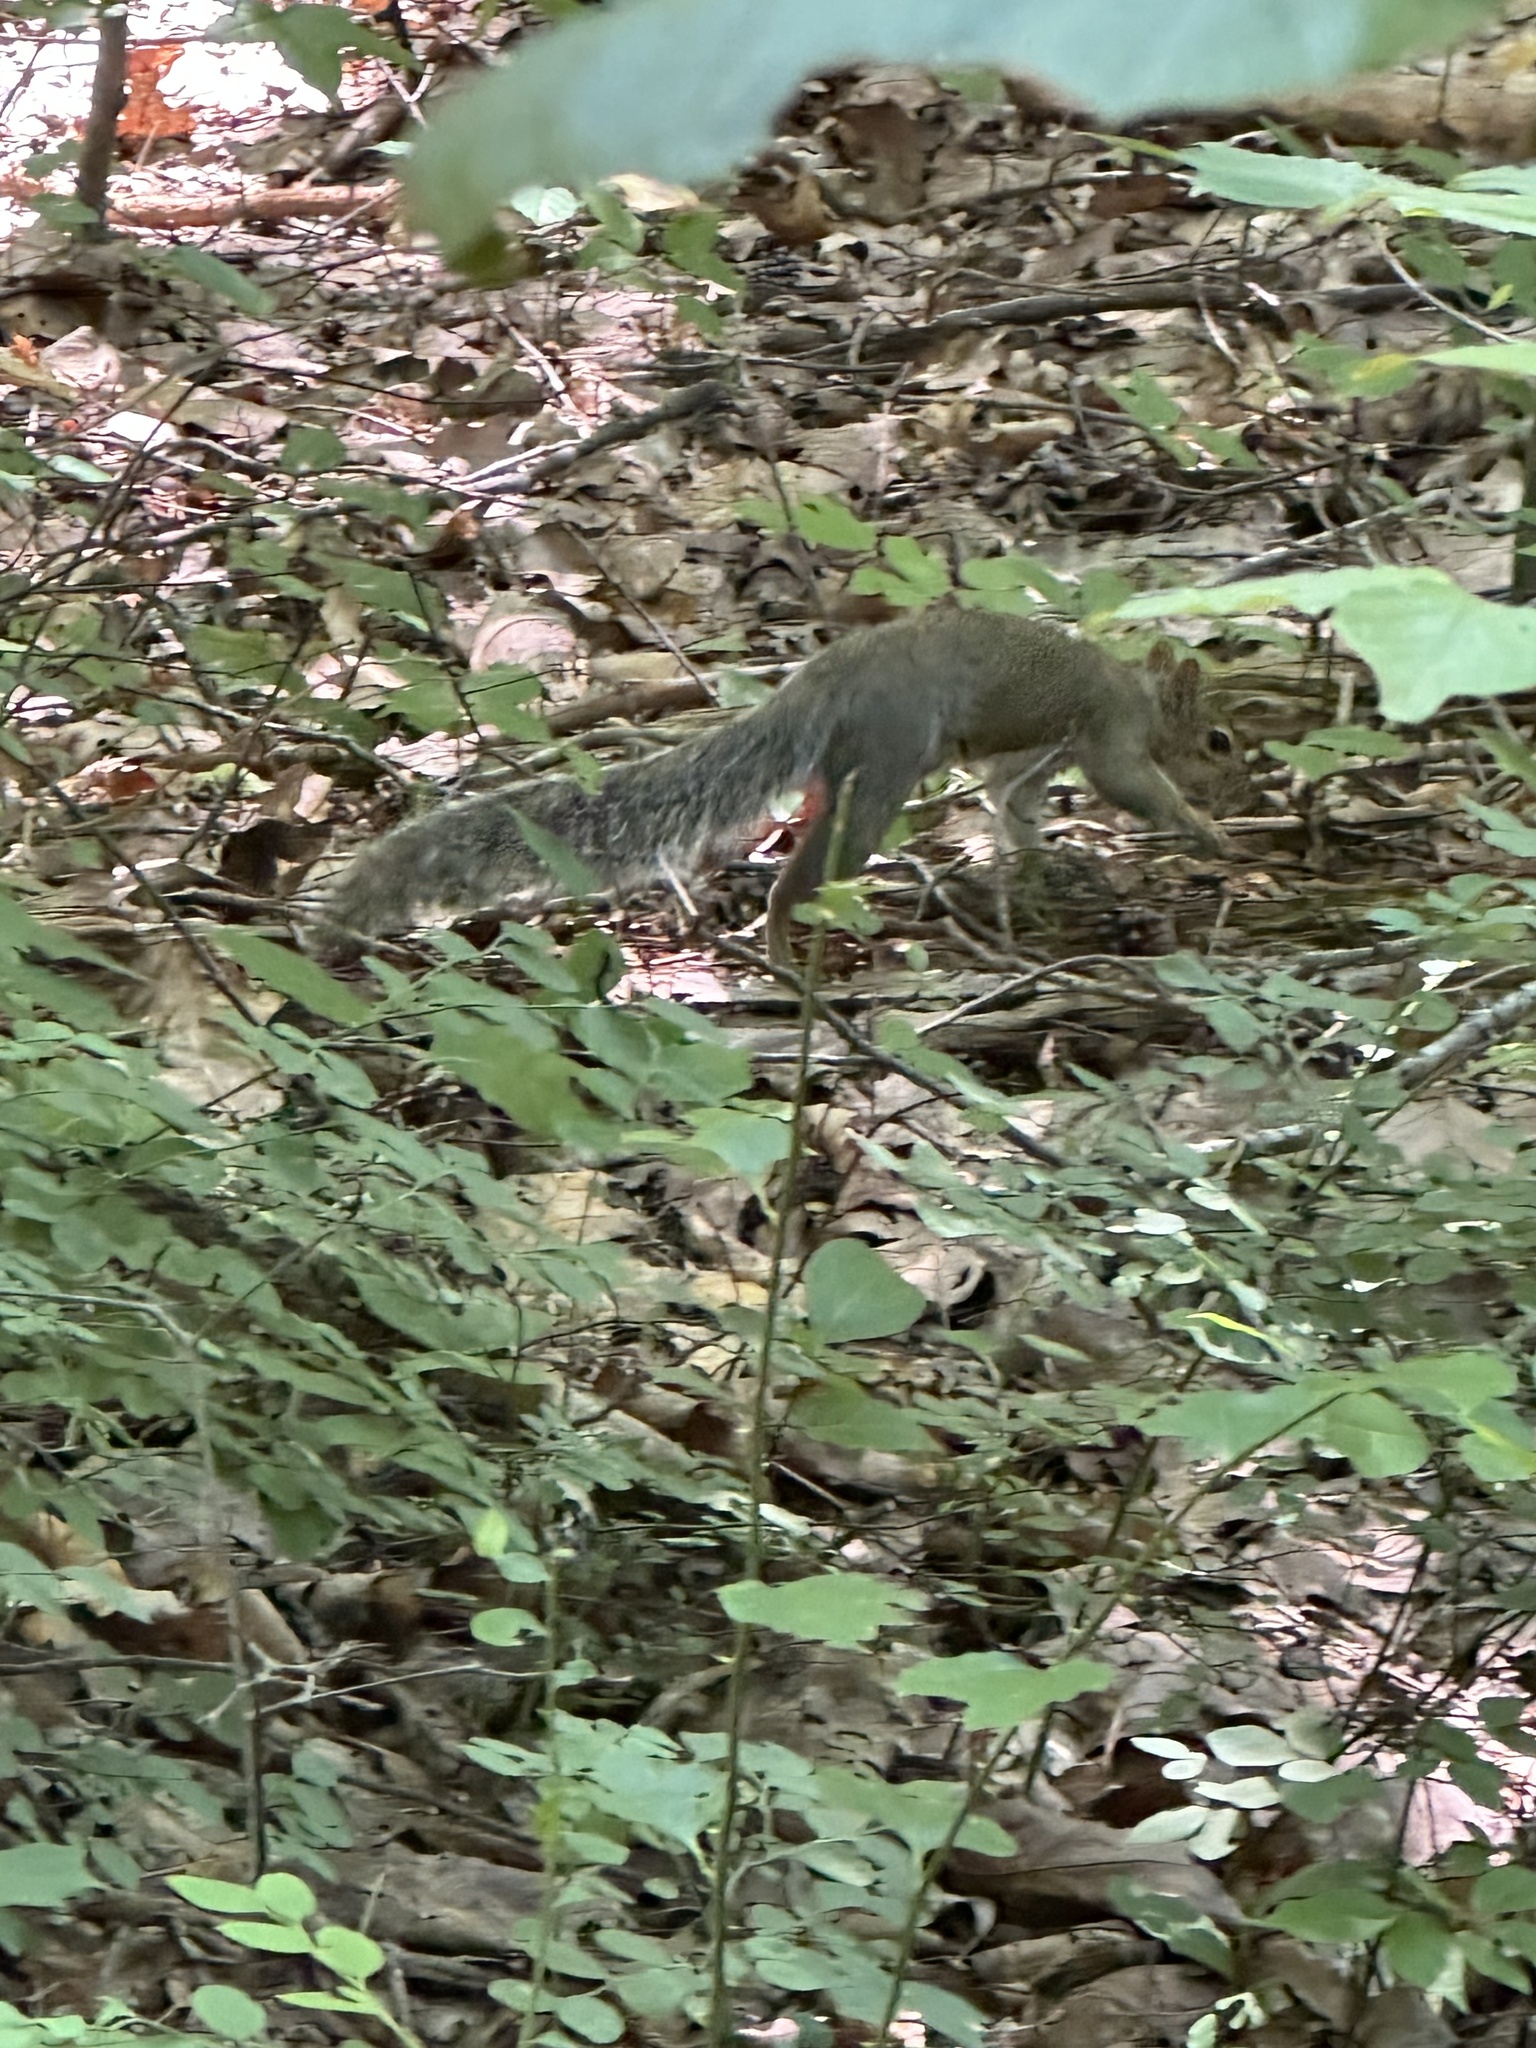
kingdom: Animalia
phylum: Chordata
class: Mammalia
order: Rodentia
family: Sciuridae
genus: Sciurus
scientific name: Sciurus carolinensis
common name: Eastern gray squirrel
